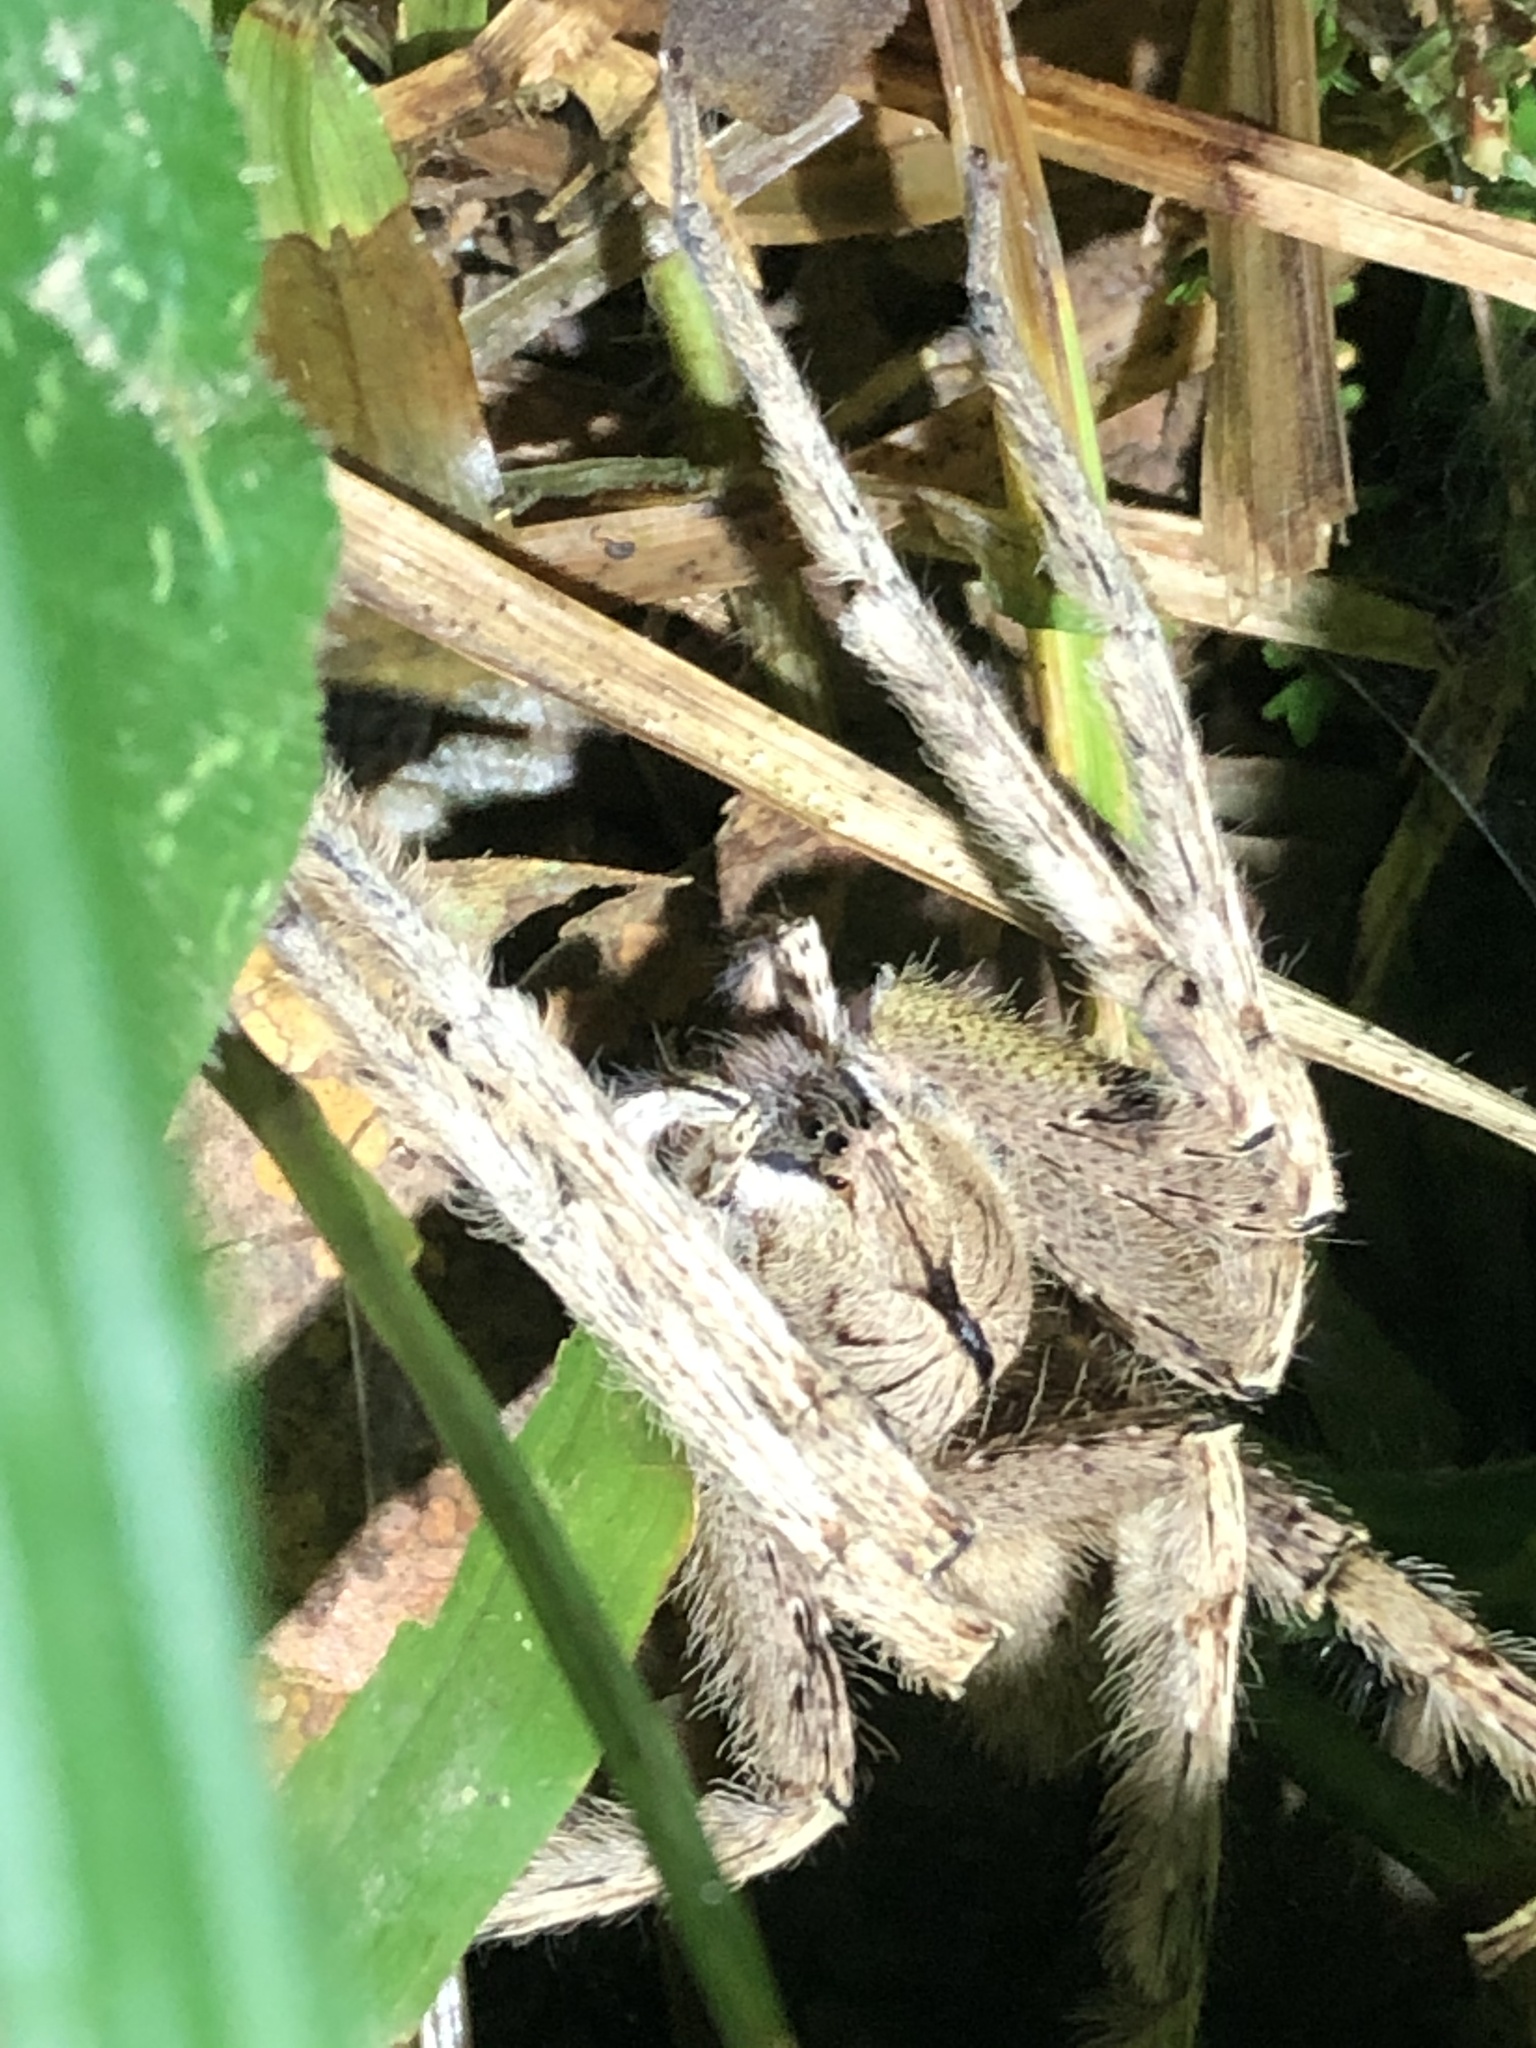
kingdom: Animalia
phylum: Arthropoda
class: Arachnida
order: Araneae
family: Ctenidae
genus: Phoneutria
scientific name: Phoneutria boliviensis
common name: Wandering spiders
